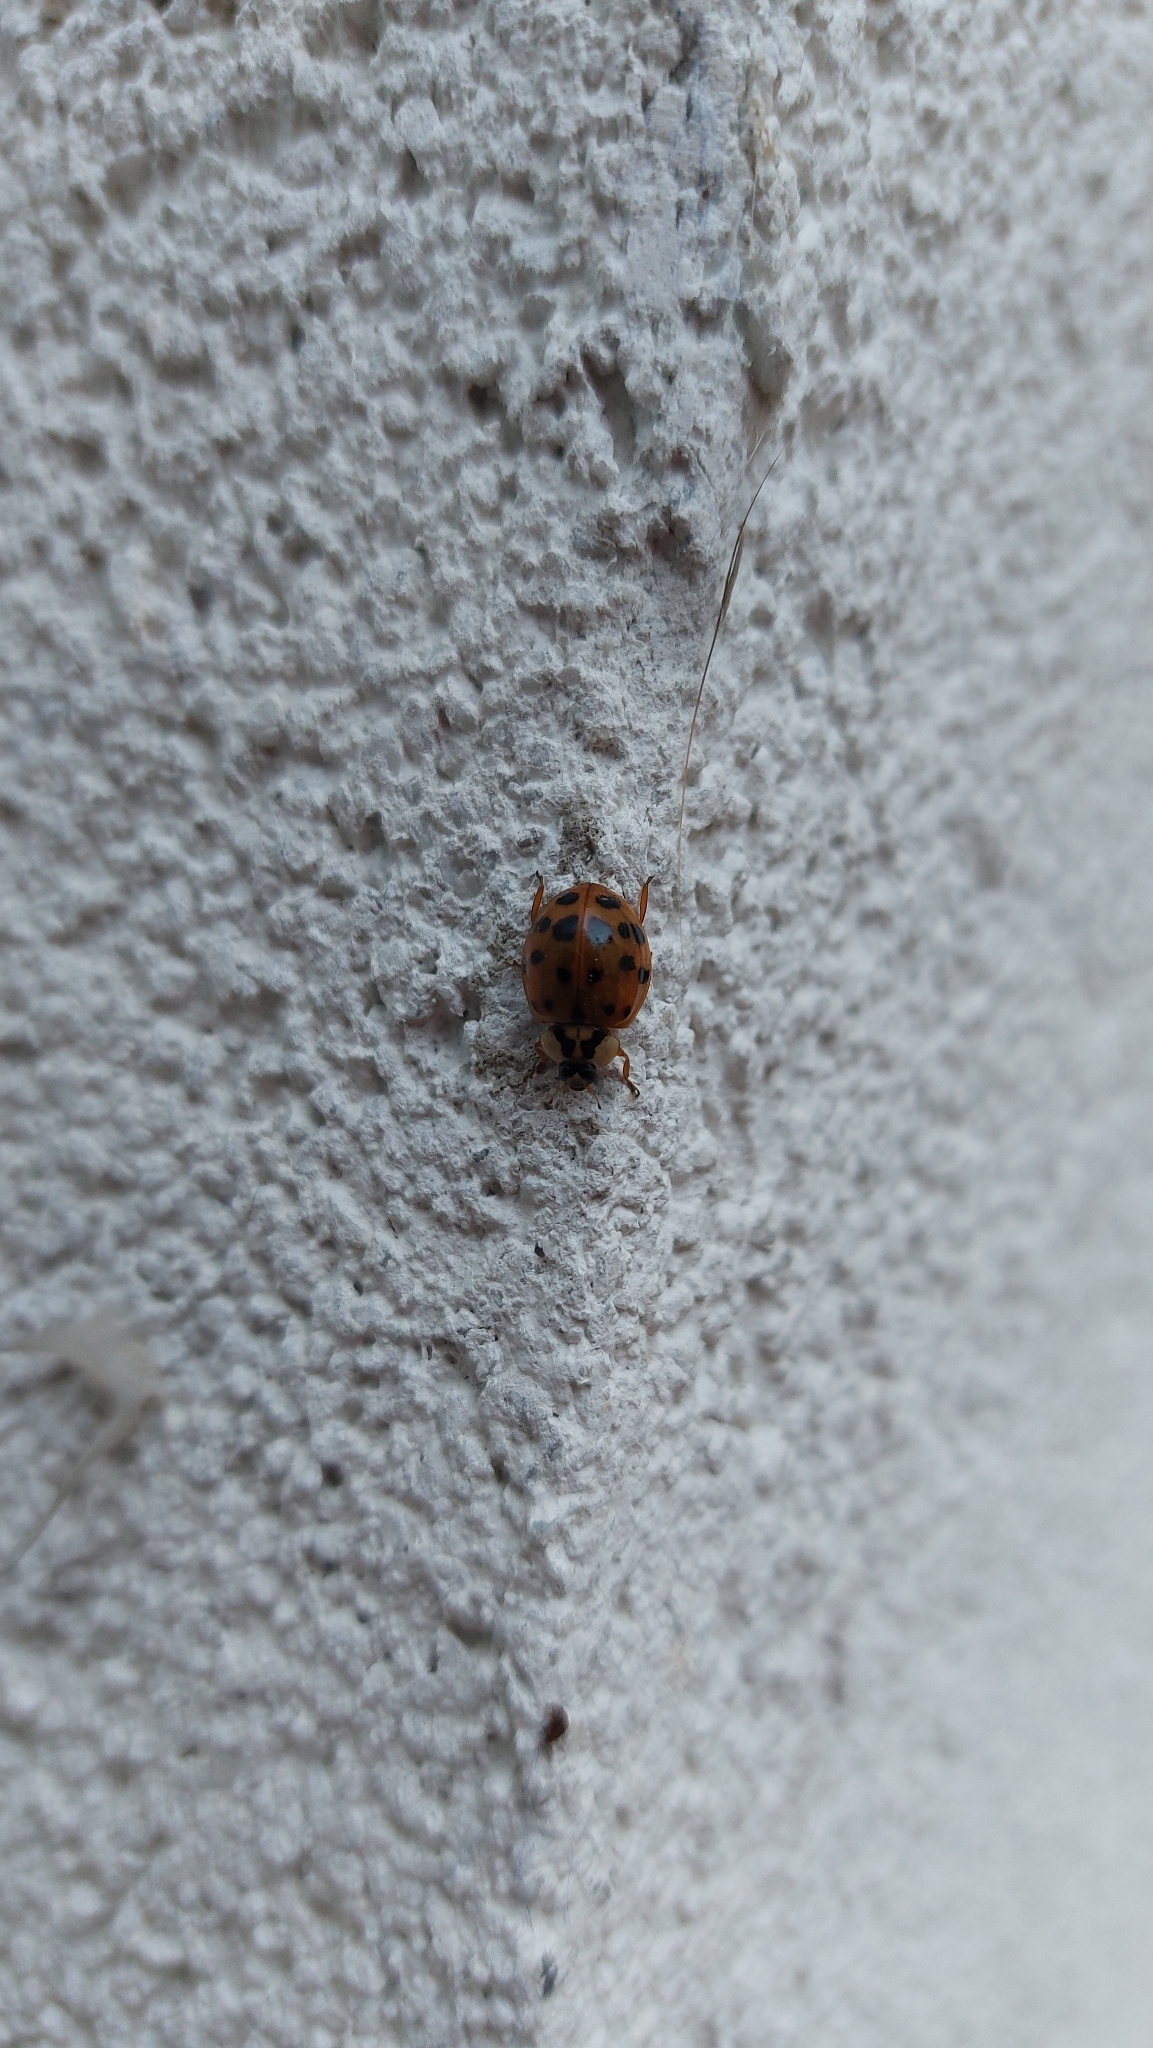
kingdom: Animalia
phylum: Arthropoda
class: Insecta
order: Coleoptera
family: Coccinellidae
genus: Harmonia
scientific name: Harmonia axyridis
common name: Harlequin ladybird
